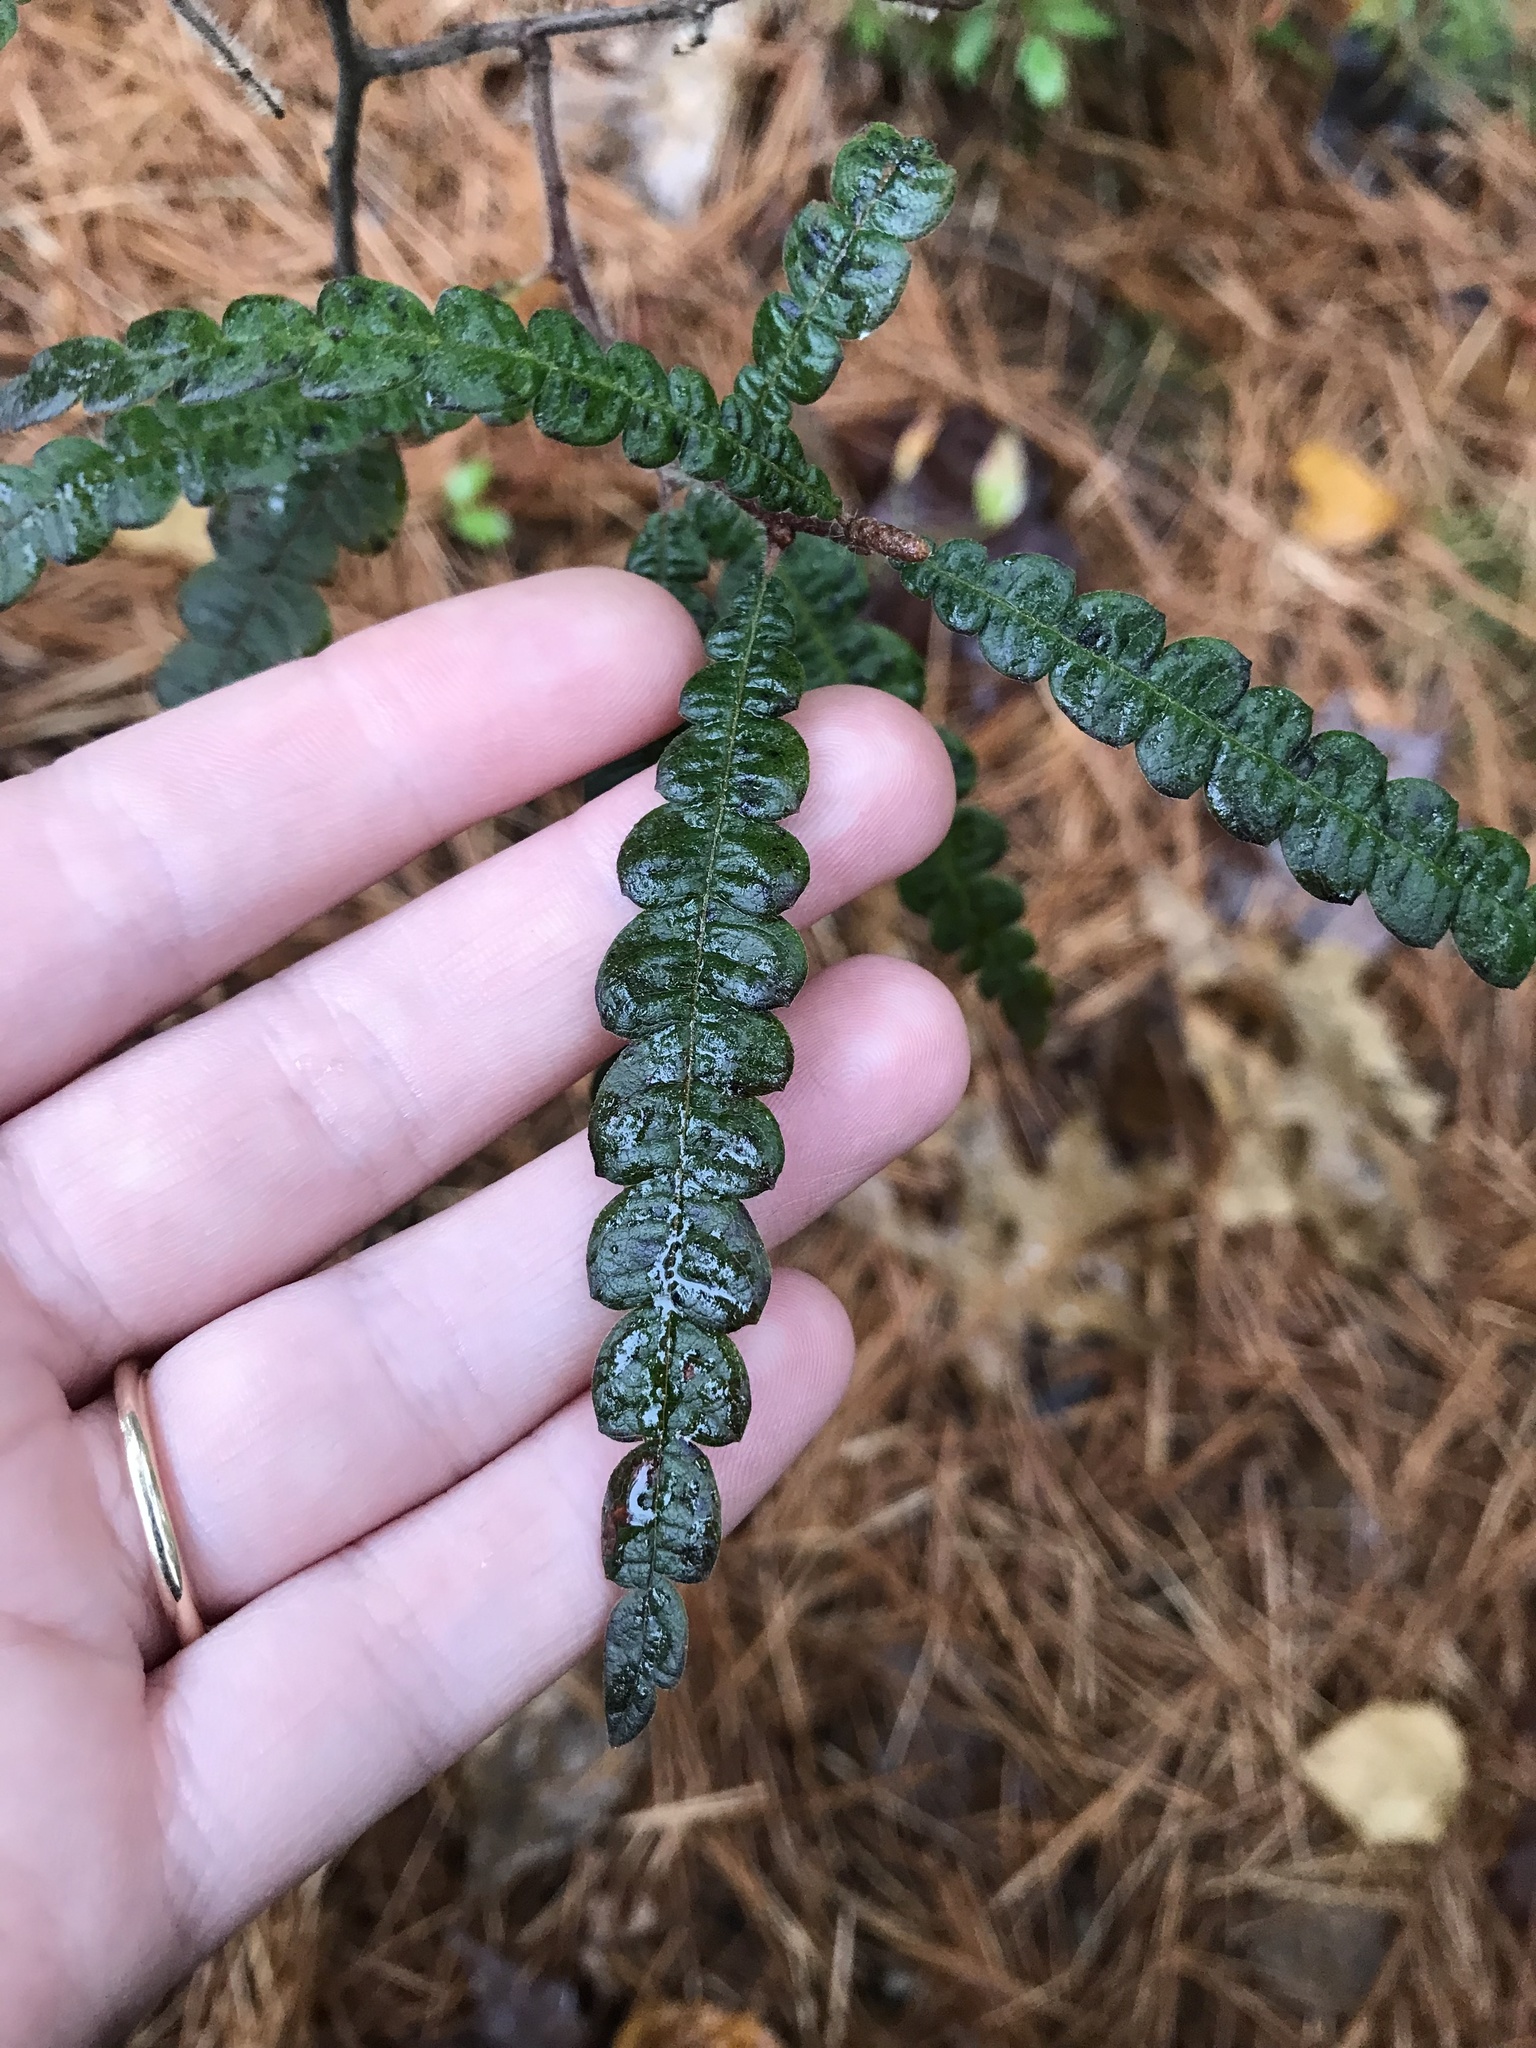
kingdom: Plantae
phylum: Tracheophyta
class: Magnoliopsida
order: Fagales
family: Myricaceae
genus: Comptonia
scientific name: Comptonia peregrina
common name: Sweet-fern
